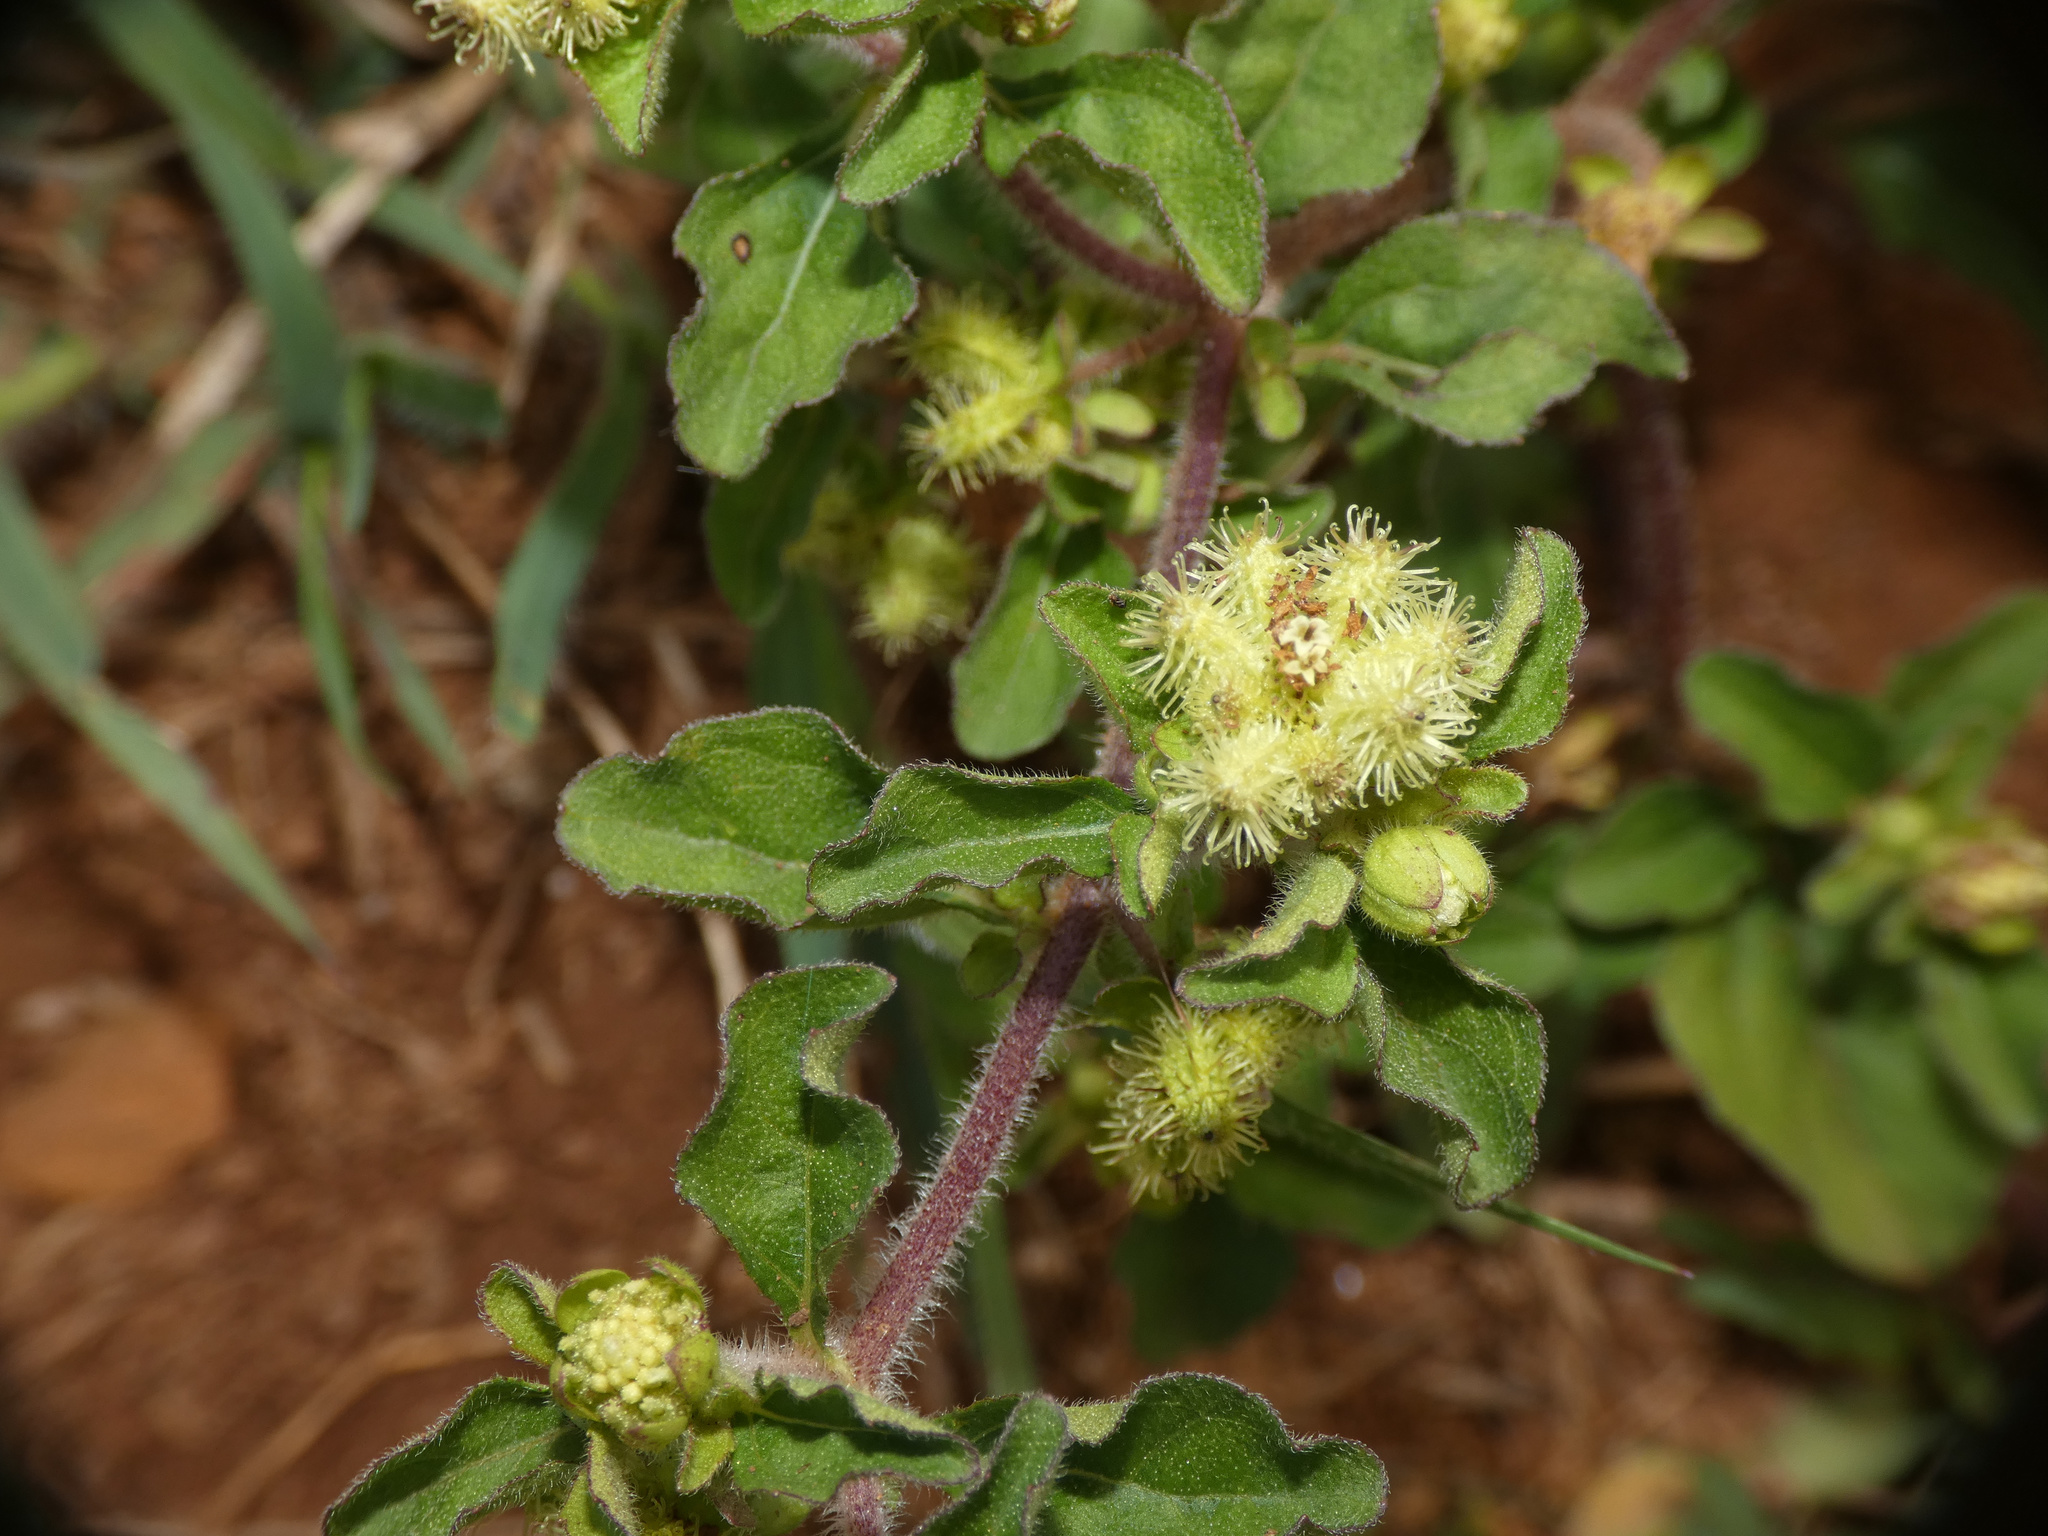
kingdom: Plantae
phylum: Tracheophyta
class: Magnoliopsida
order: Asterales
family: Asteraceae
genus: Acanthospermum
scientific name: Acanthospermum australe
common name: Paraguayan starbur
